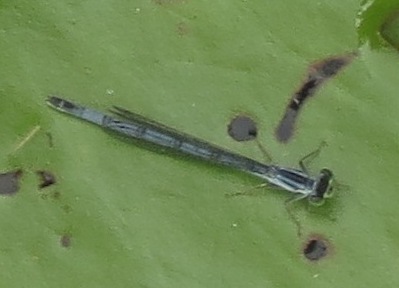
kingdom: Animalia
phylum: Arthropoda
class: Insecta
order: Odonata
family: Coenagrionidae
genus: Ischnura
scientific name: Ischnura verticalis
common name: Eastern forktail
